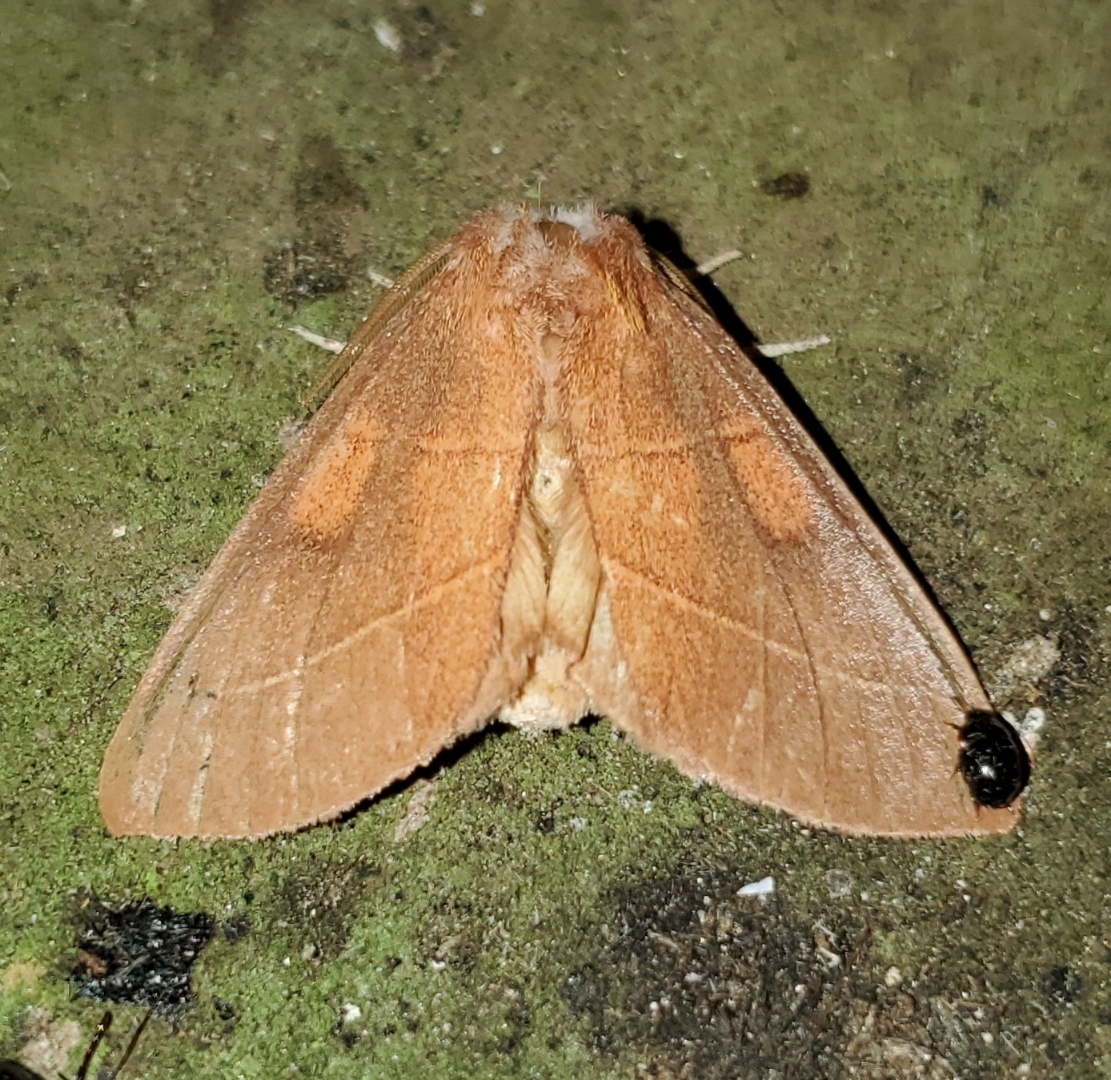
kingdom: Animalia
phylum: Arthropoda
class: Insecta
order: Lepidoptera
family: Notodontidae
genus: Nadata
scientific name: Nadata gibbosa
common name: White-dotted prominent
